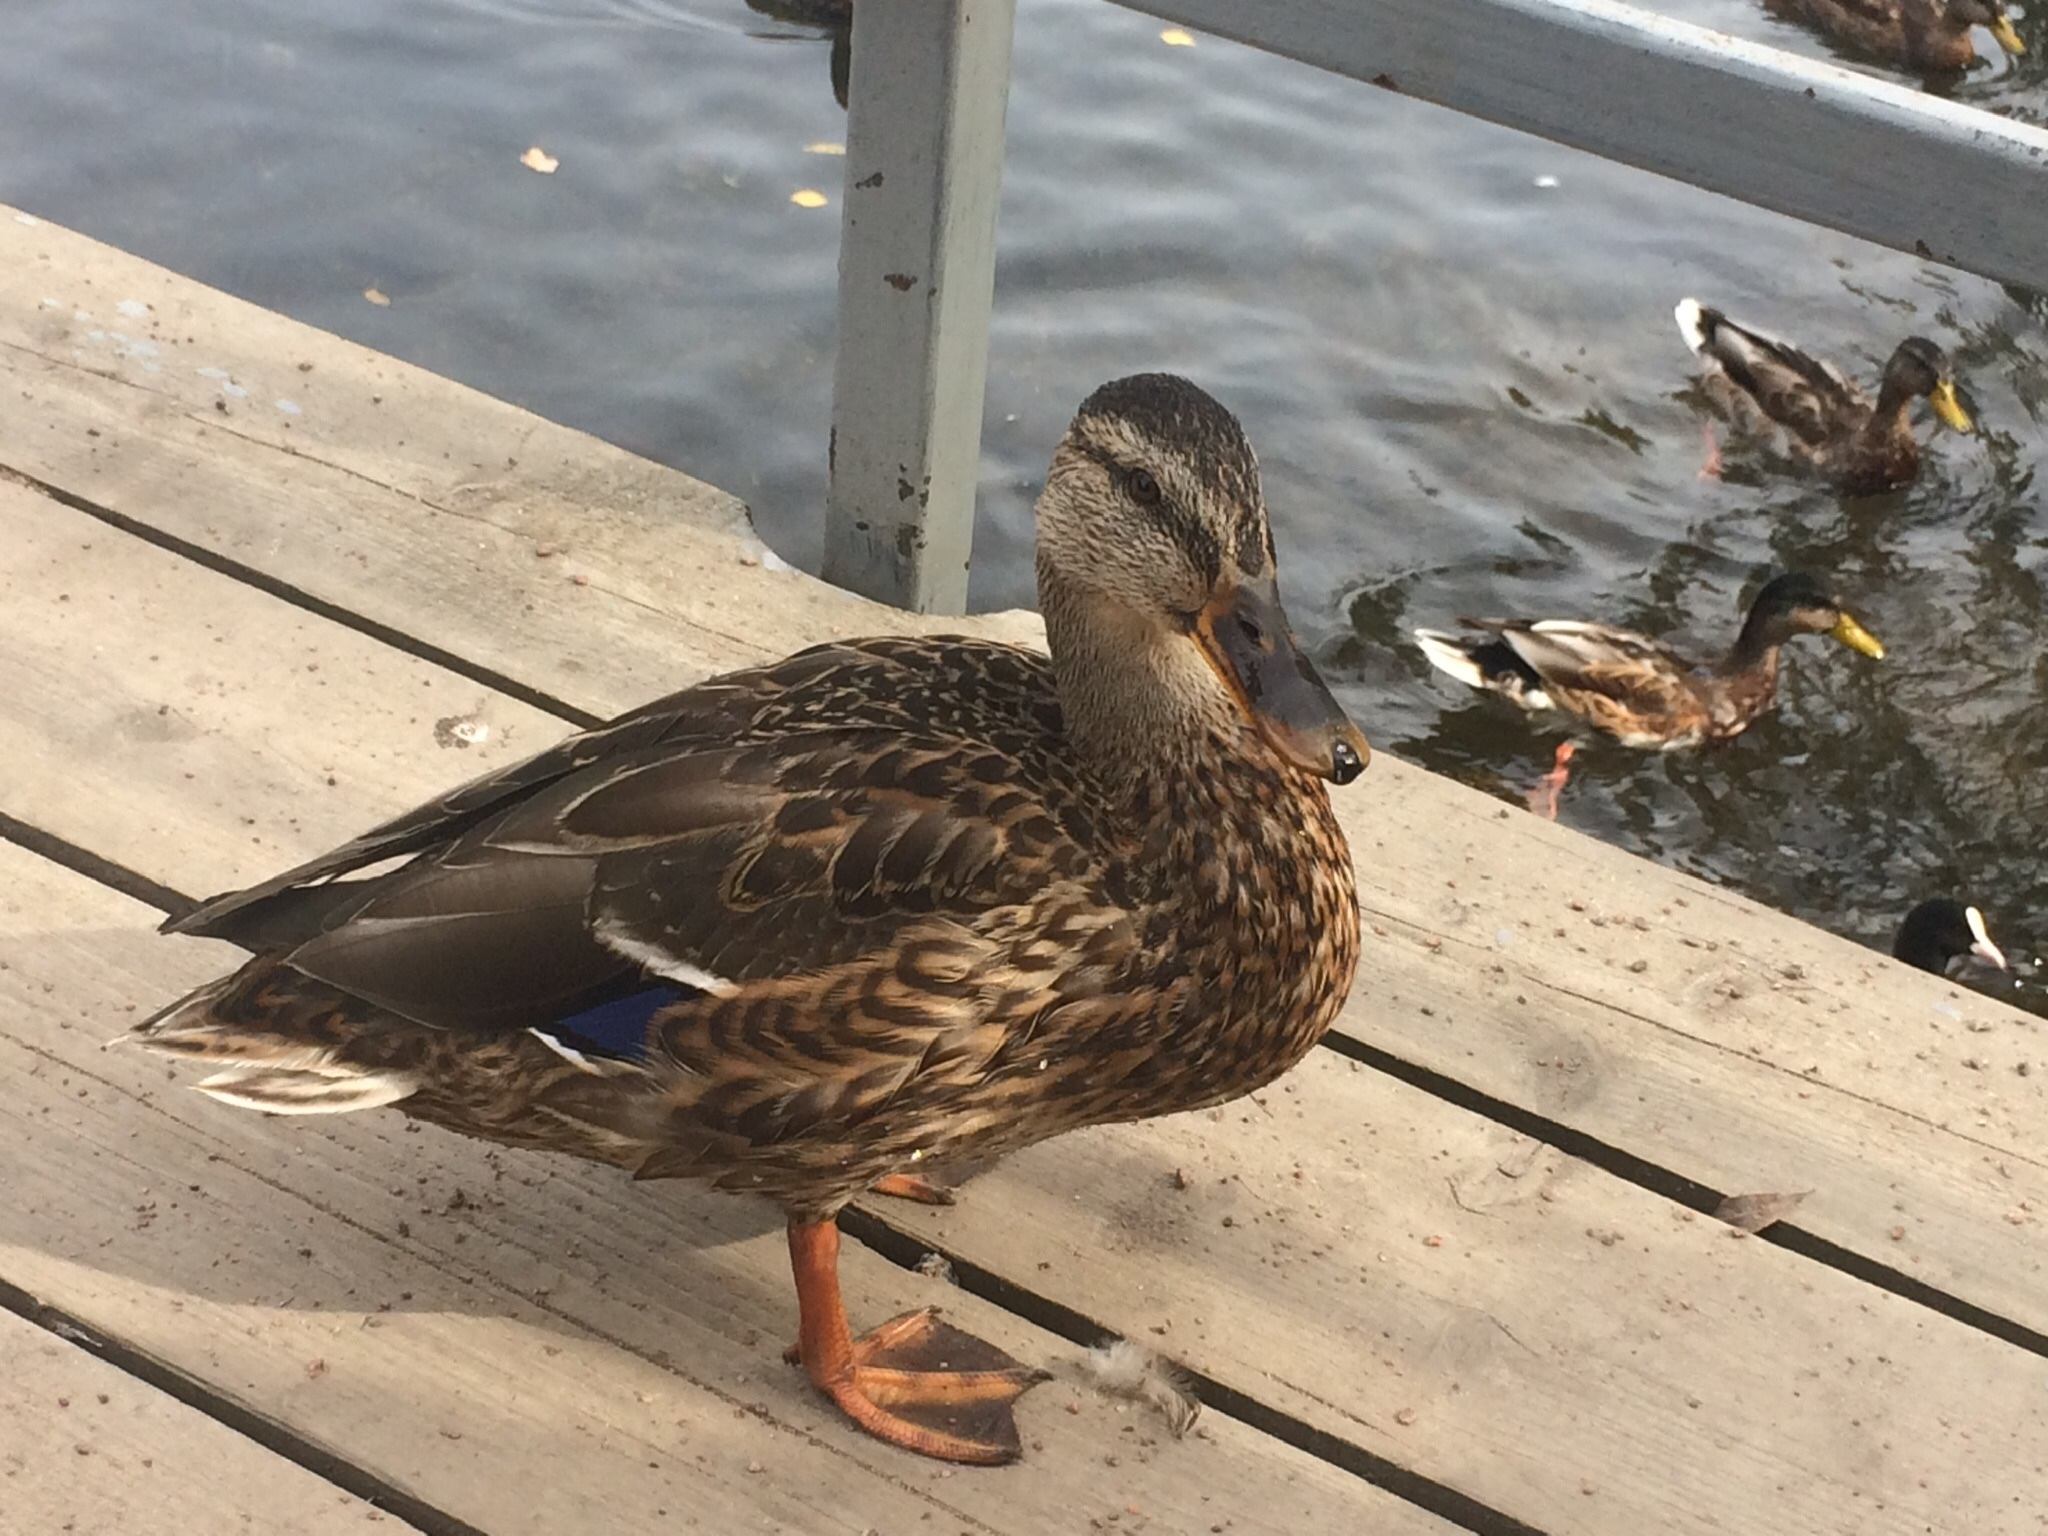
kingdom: Animalia
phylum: Chordata
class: Aves
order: Anseriformes
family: Anatidae
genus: Anas
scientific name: Anas platyrhynchos
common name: Mallard
